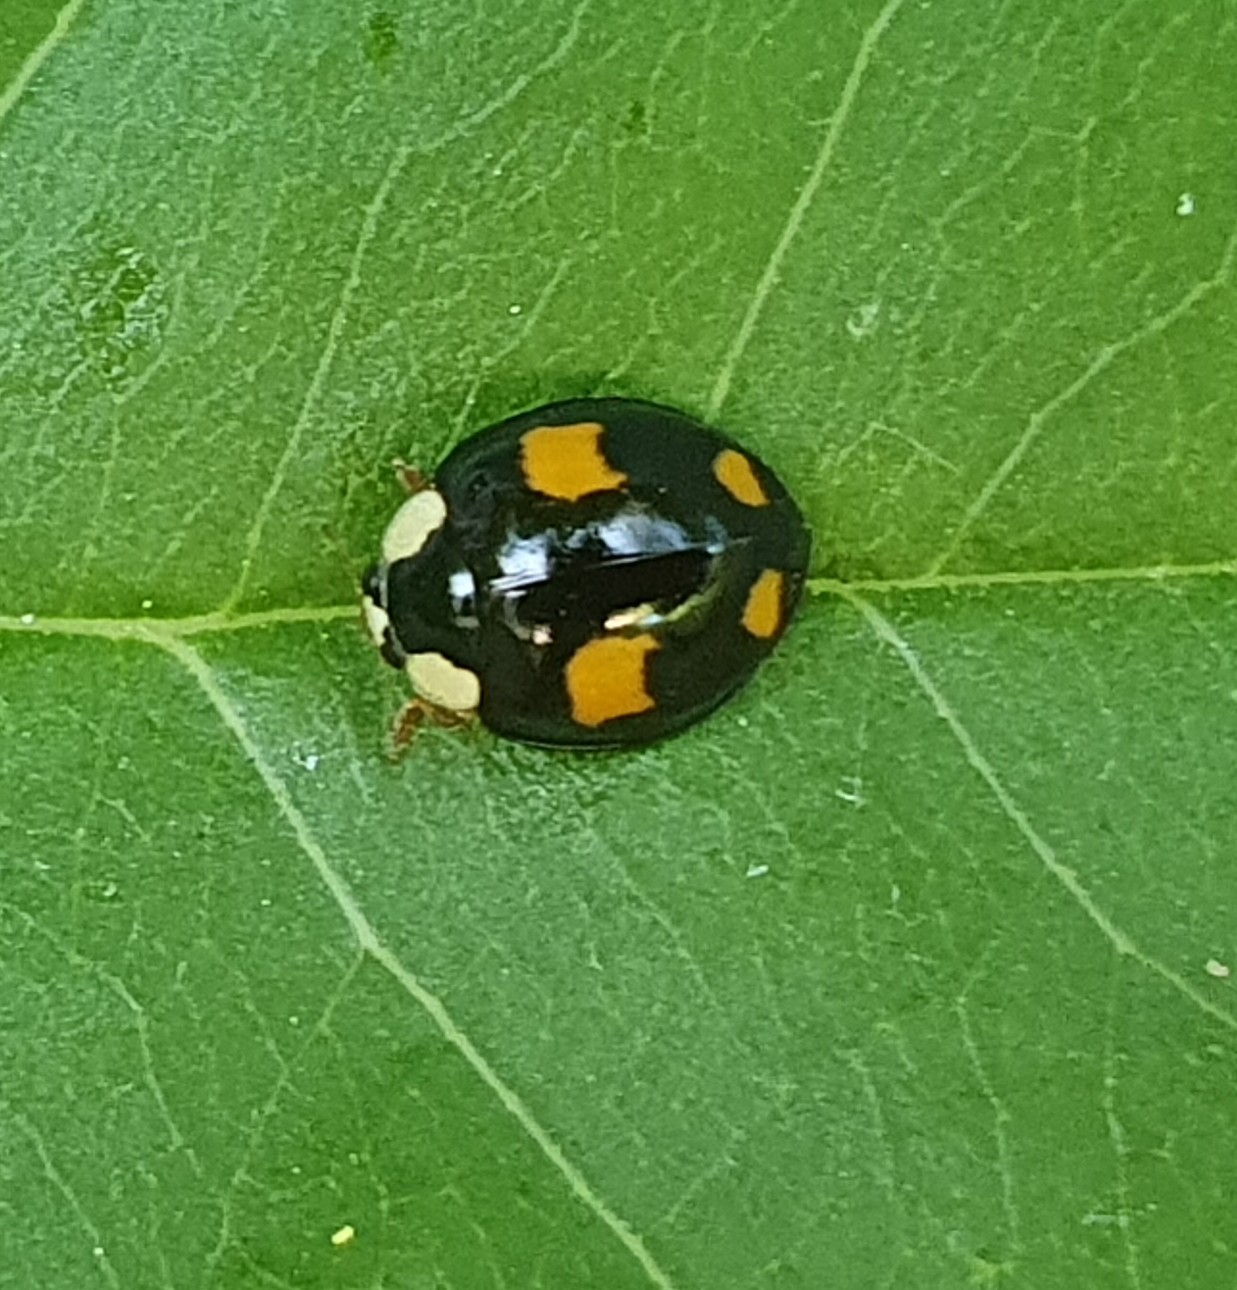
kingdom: Animalia
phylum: Arthropoda
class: Insecta
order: Coleoptera
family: Coccinellidae
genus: Harmonia
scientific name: Harmonia axyridis
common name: Harlequin ladybird
